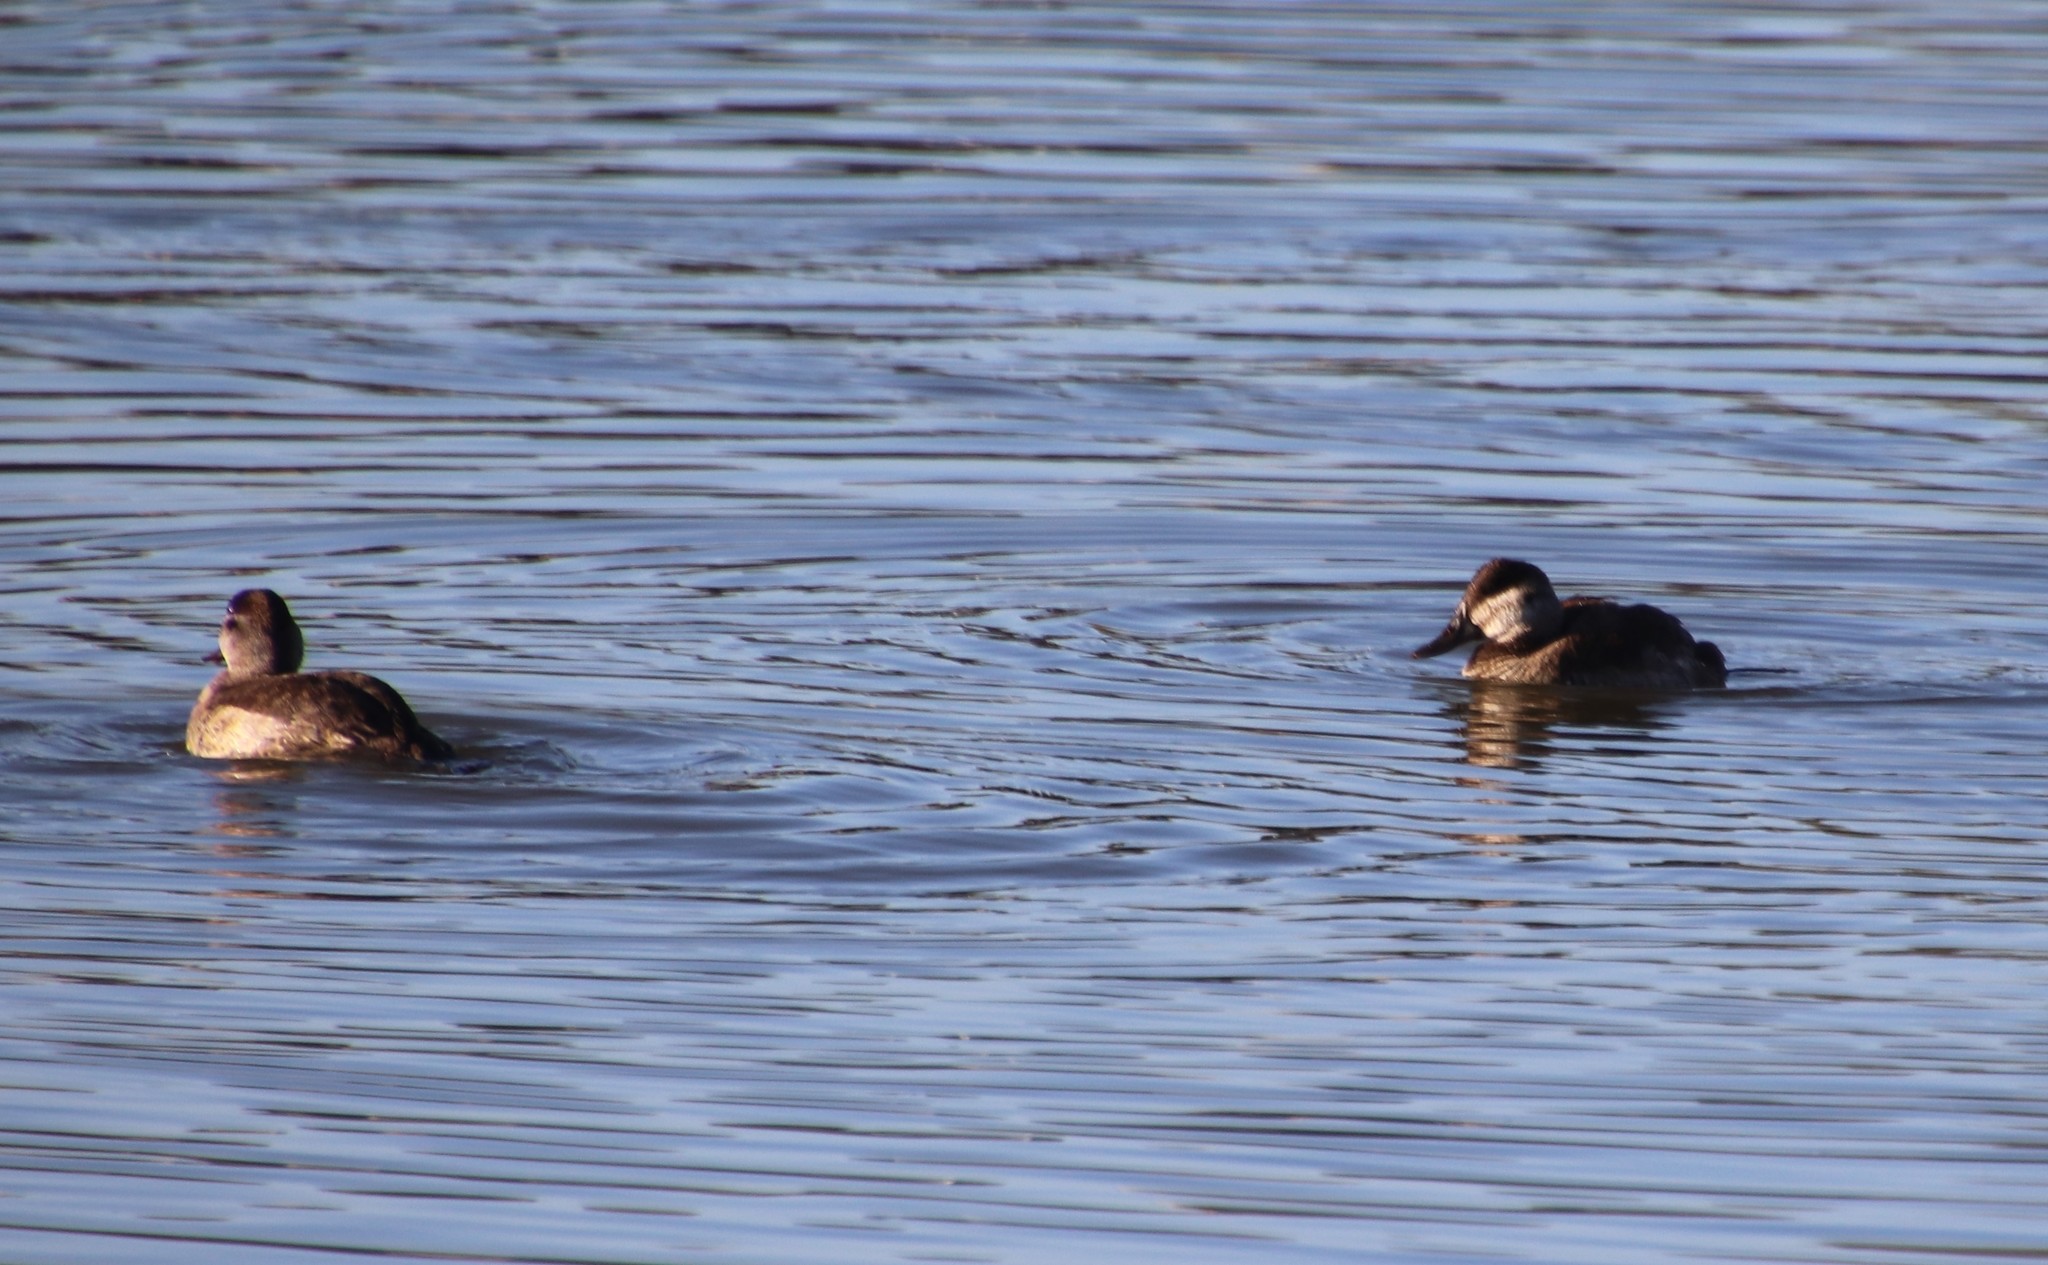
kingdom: Animalia
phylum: Chordata
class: Aves
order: Anseriformes
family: Anatidae
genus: Oxyura
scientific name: Oxyura jamaicensis
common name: Ruddy duck
